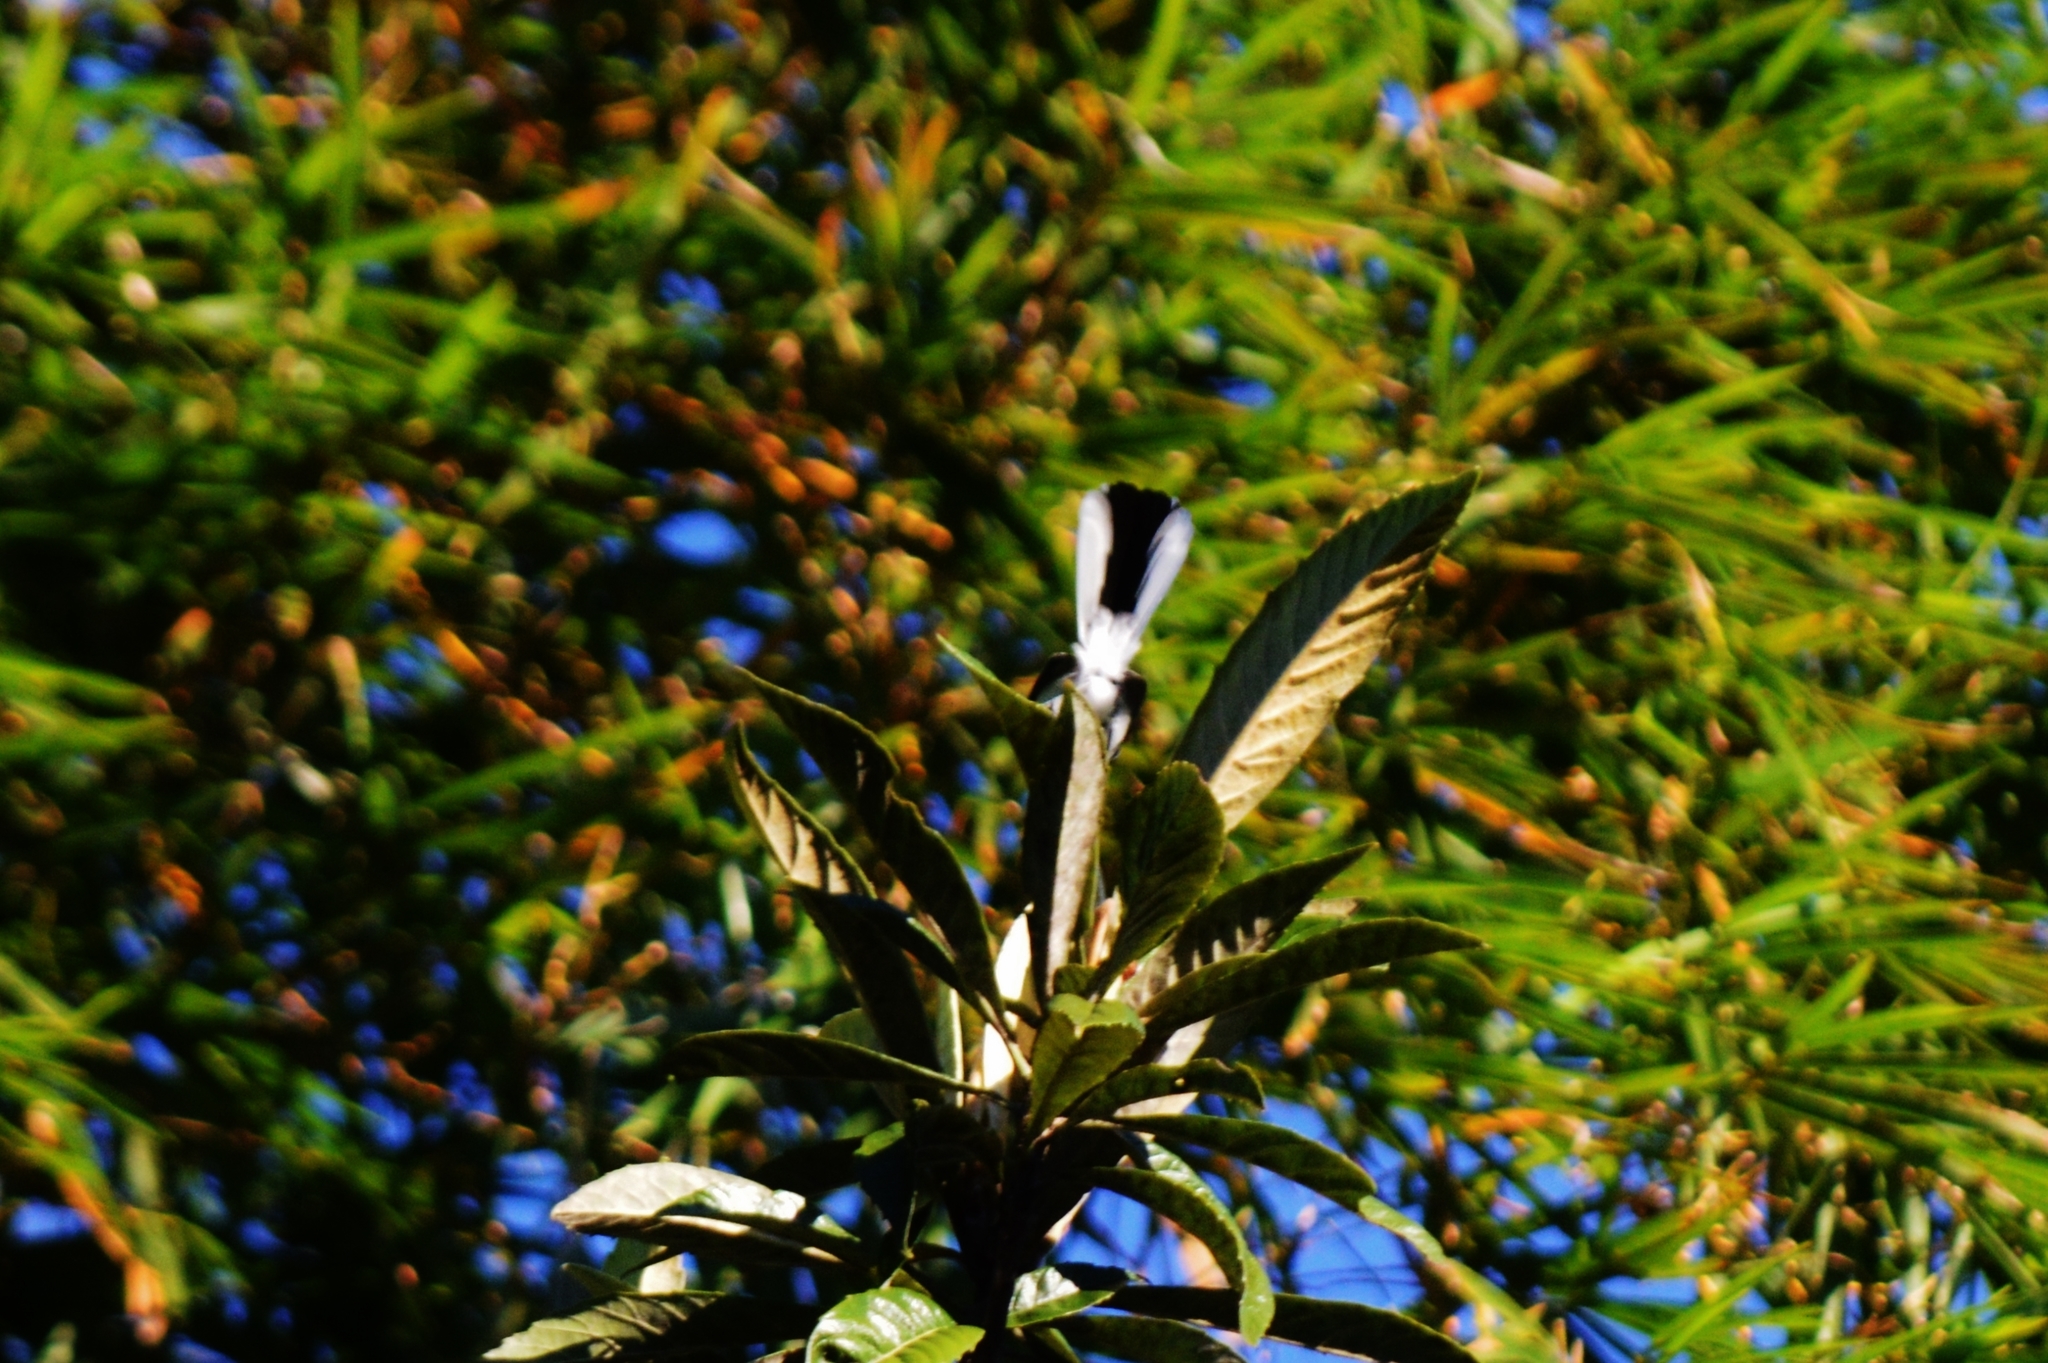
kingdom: Animalia
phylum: Chordata
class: Aves
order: Passeriformes
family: Polioptilidae
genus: Polioptila
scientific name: Polioptila dumicola
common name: Masked gnatcatcher
